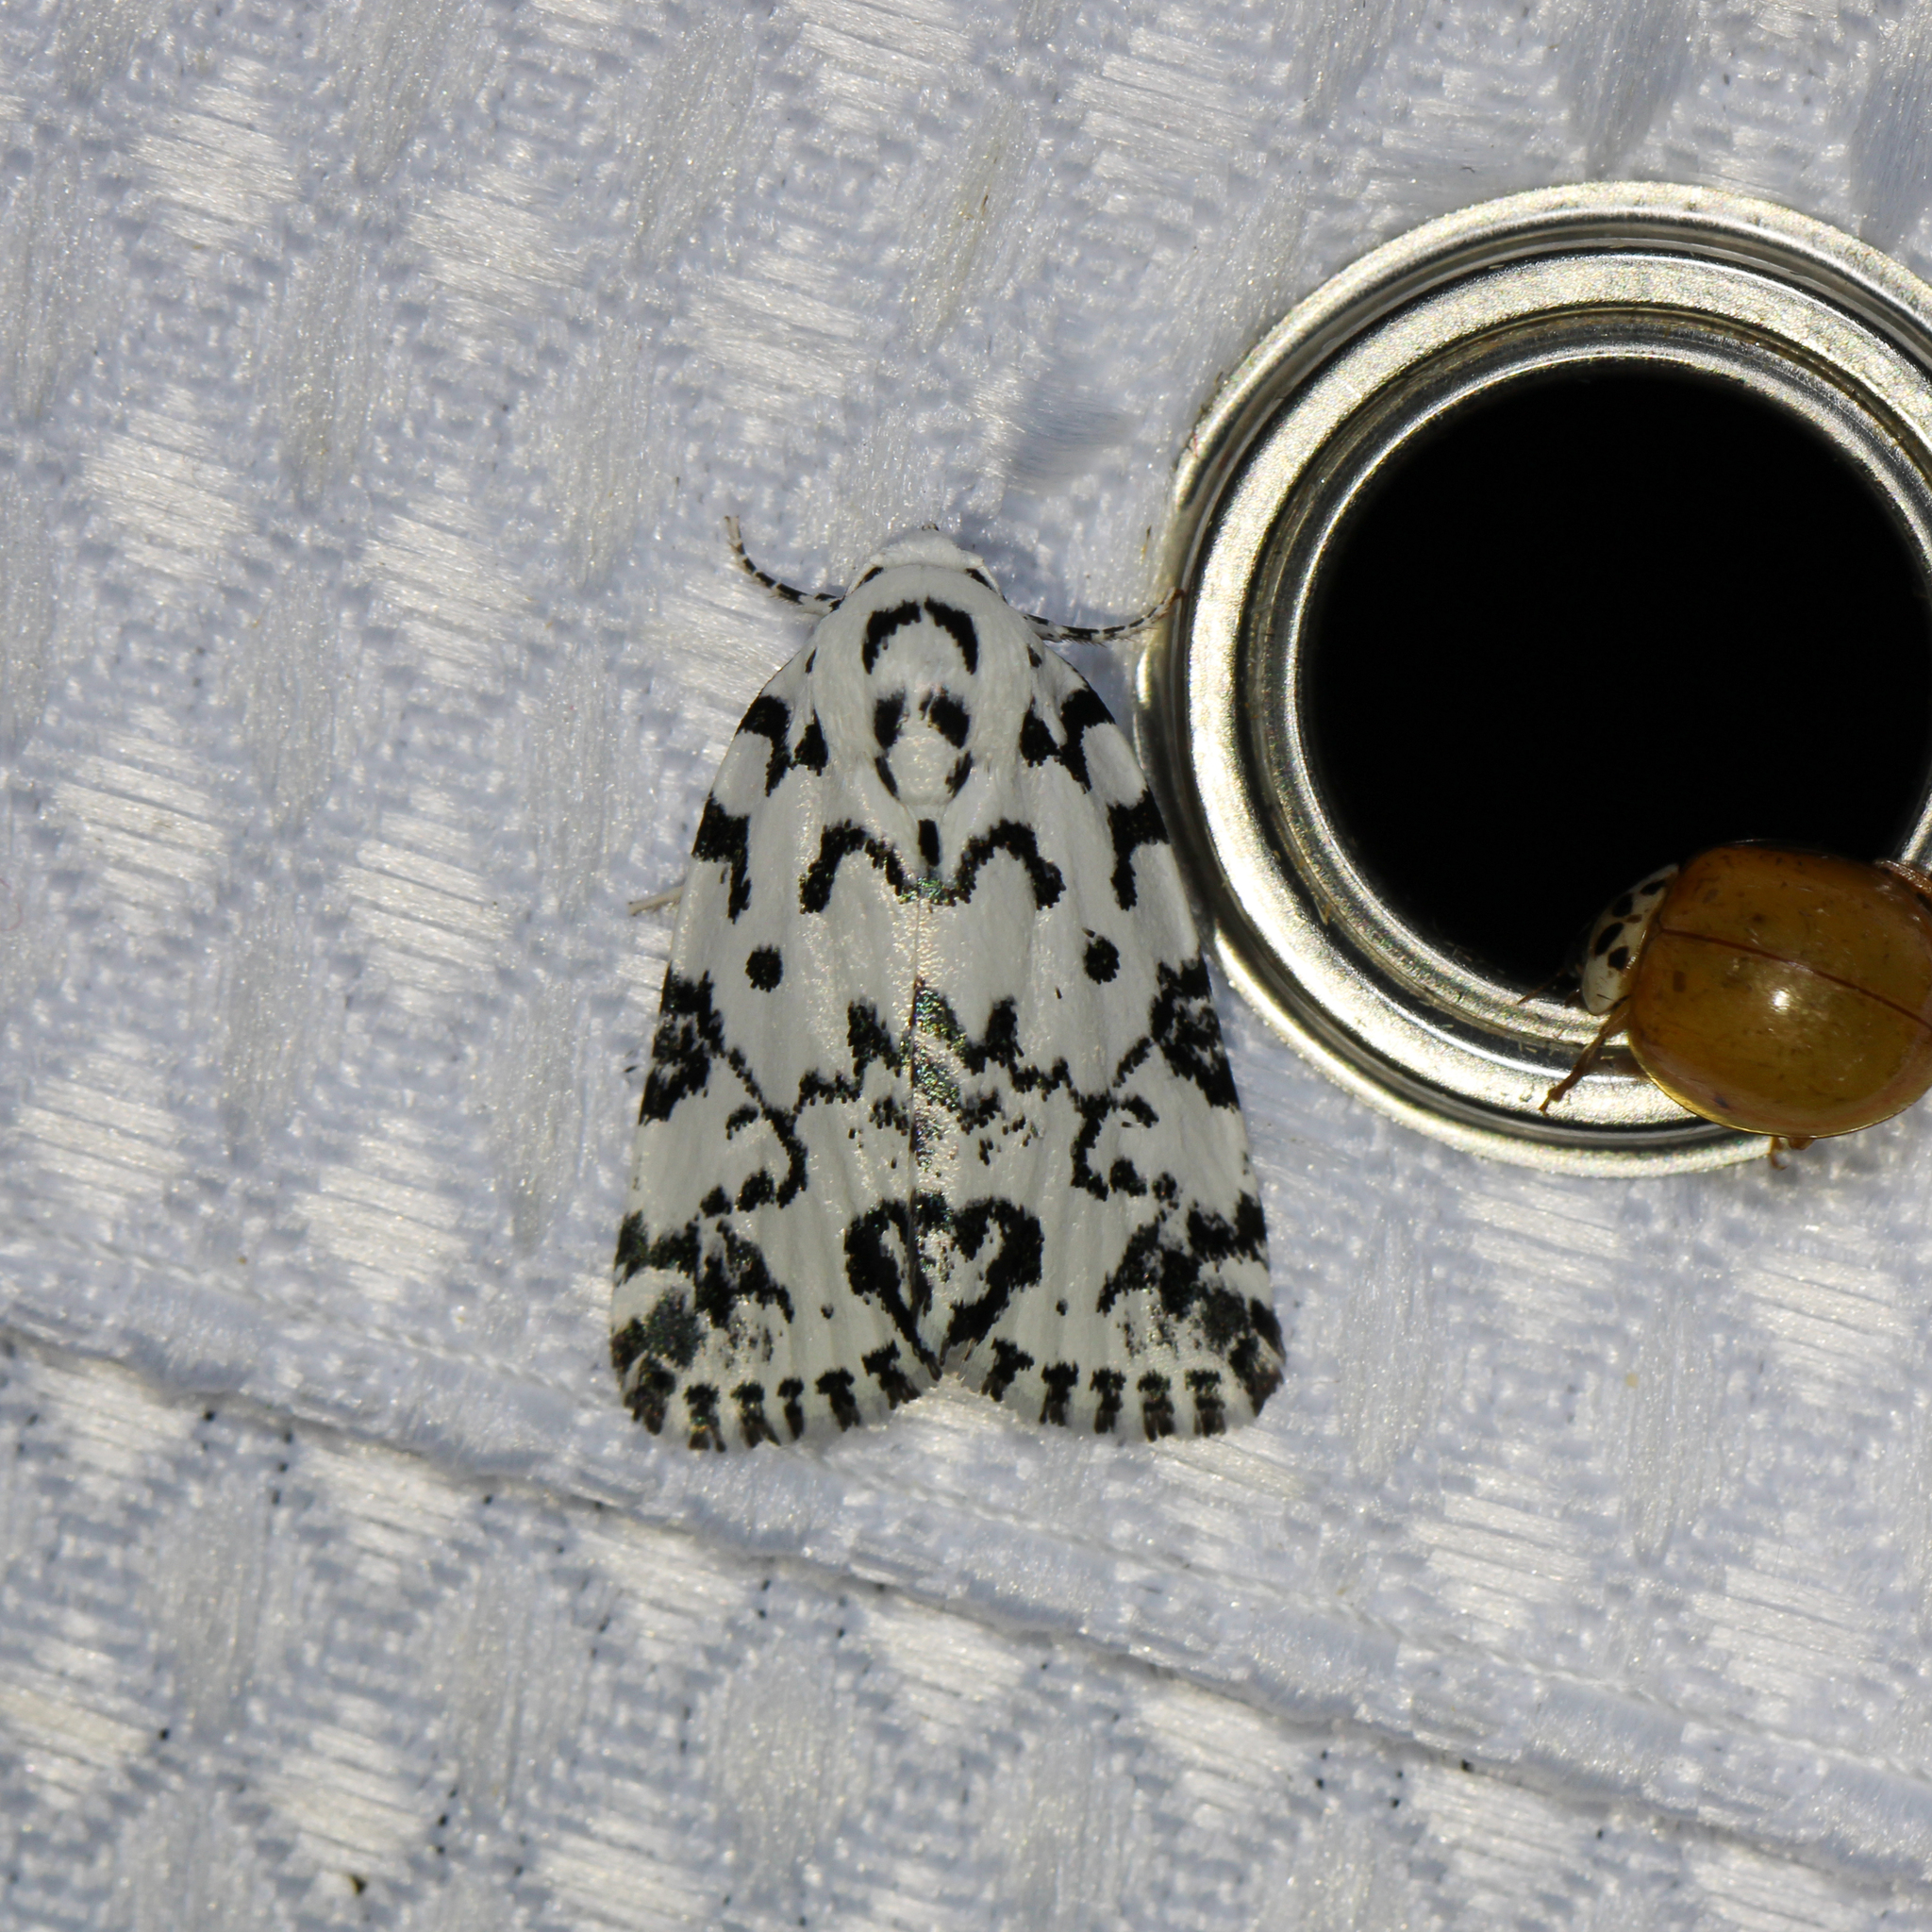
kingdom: Animalia
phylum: Arthropoda
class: Insecta
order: Lepidoptera
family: Noctuidae
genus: Polygrammate
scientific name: Polygrammate hebraeicum
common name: Hebrew moth
